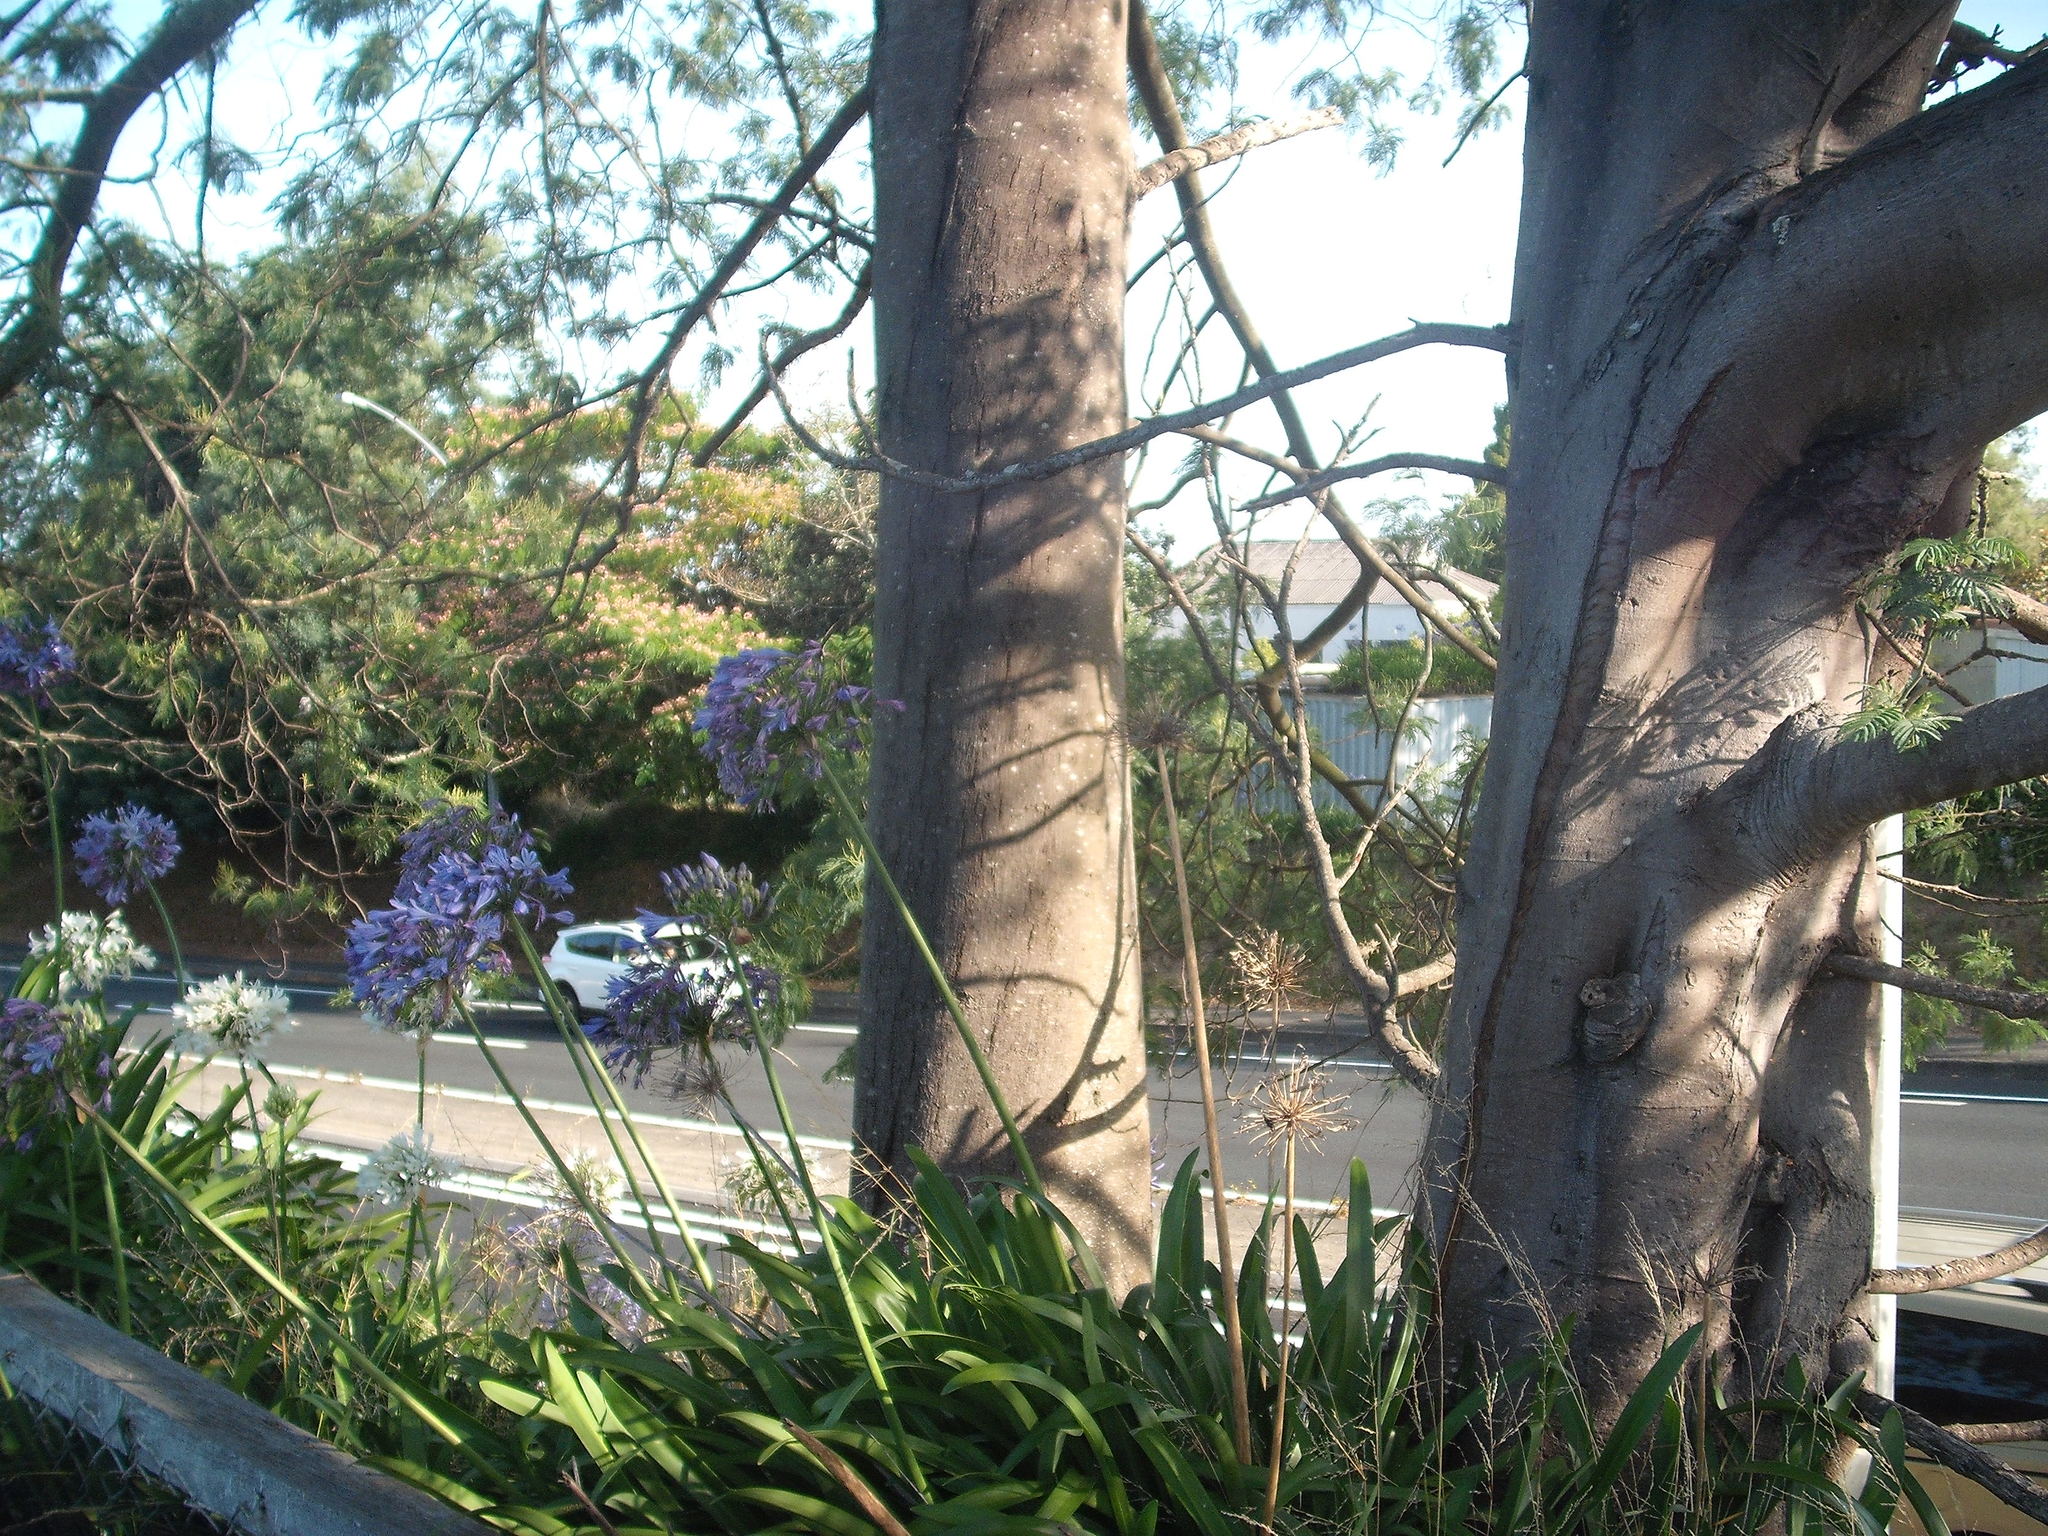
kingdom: Plantae
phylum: Tracheophyta
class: Magnoliopsida
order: Fabales
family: Fabaceae
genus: Acacia
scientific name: Acacia dealbata
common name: Silver wattle
